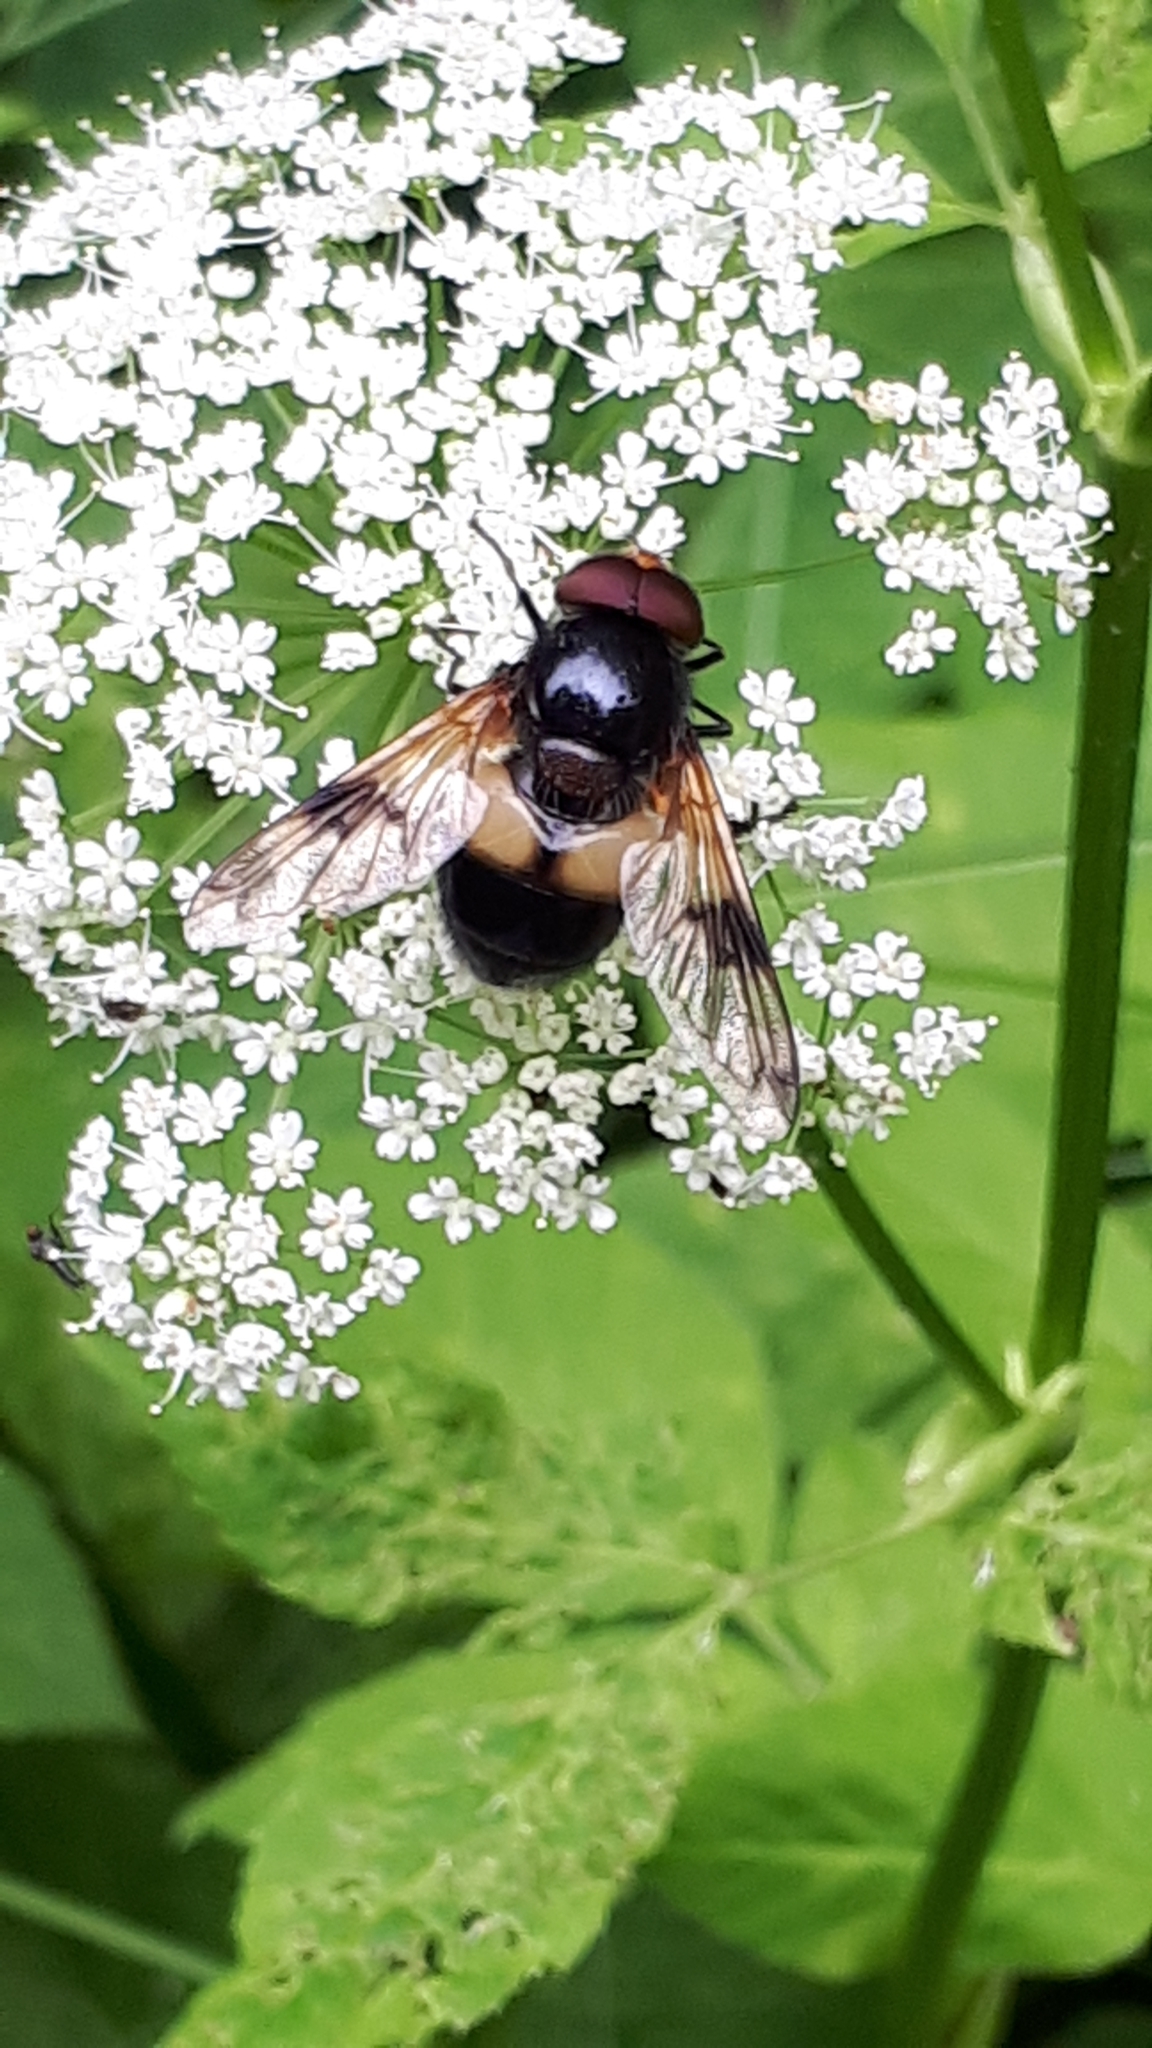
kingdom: Animalia
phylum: Arthropoda
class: Insecta
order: Diptera
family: Syrphidae
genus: Volucella
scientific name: Volucella pellucens
